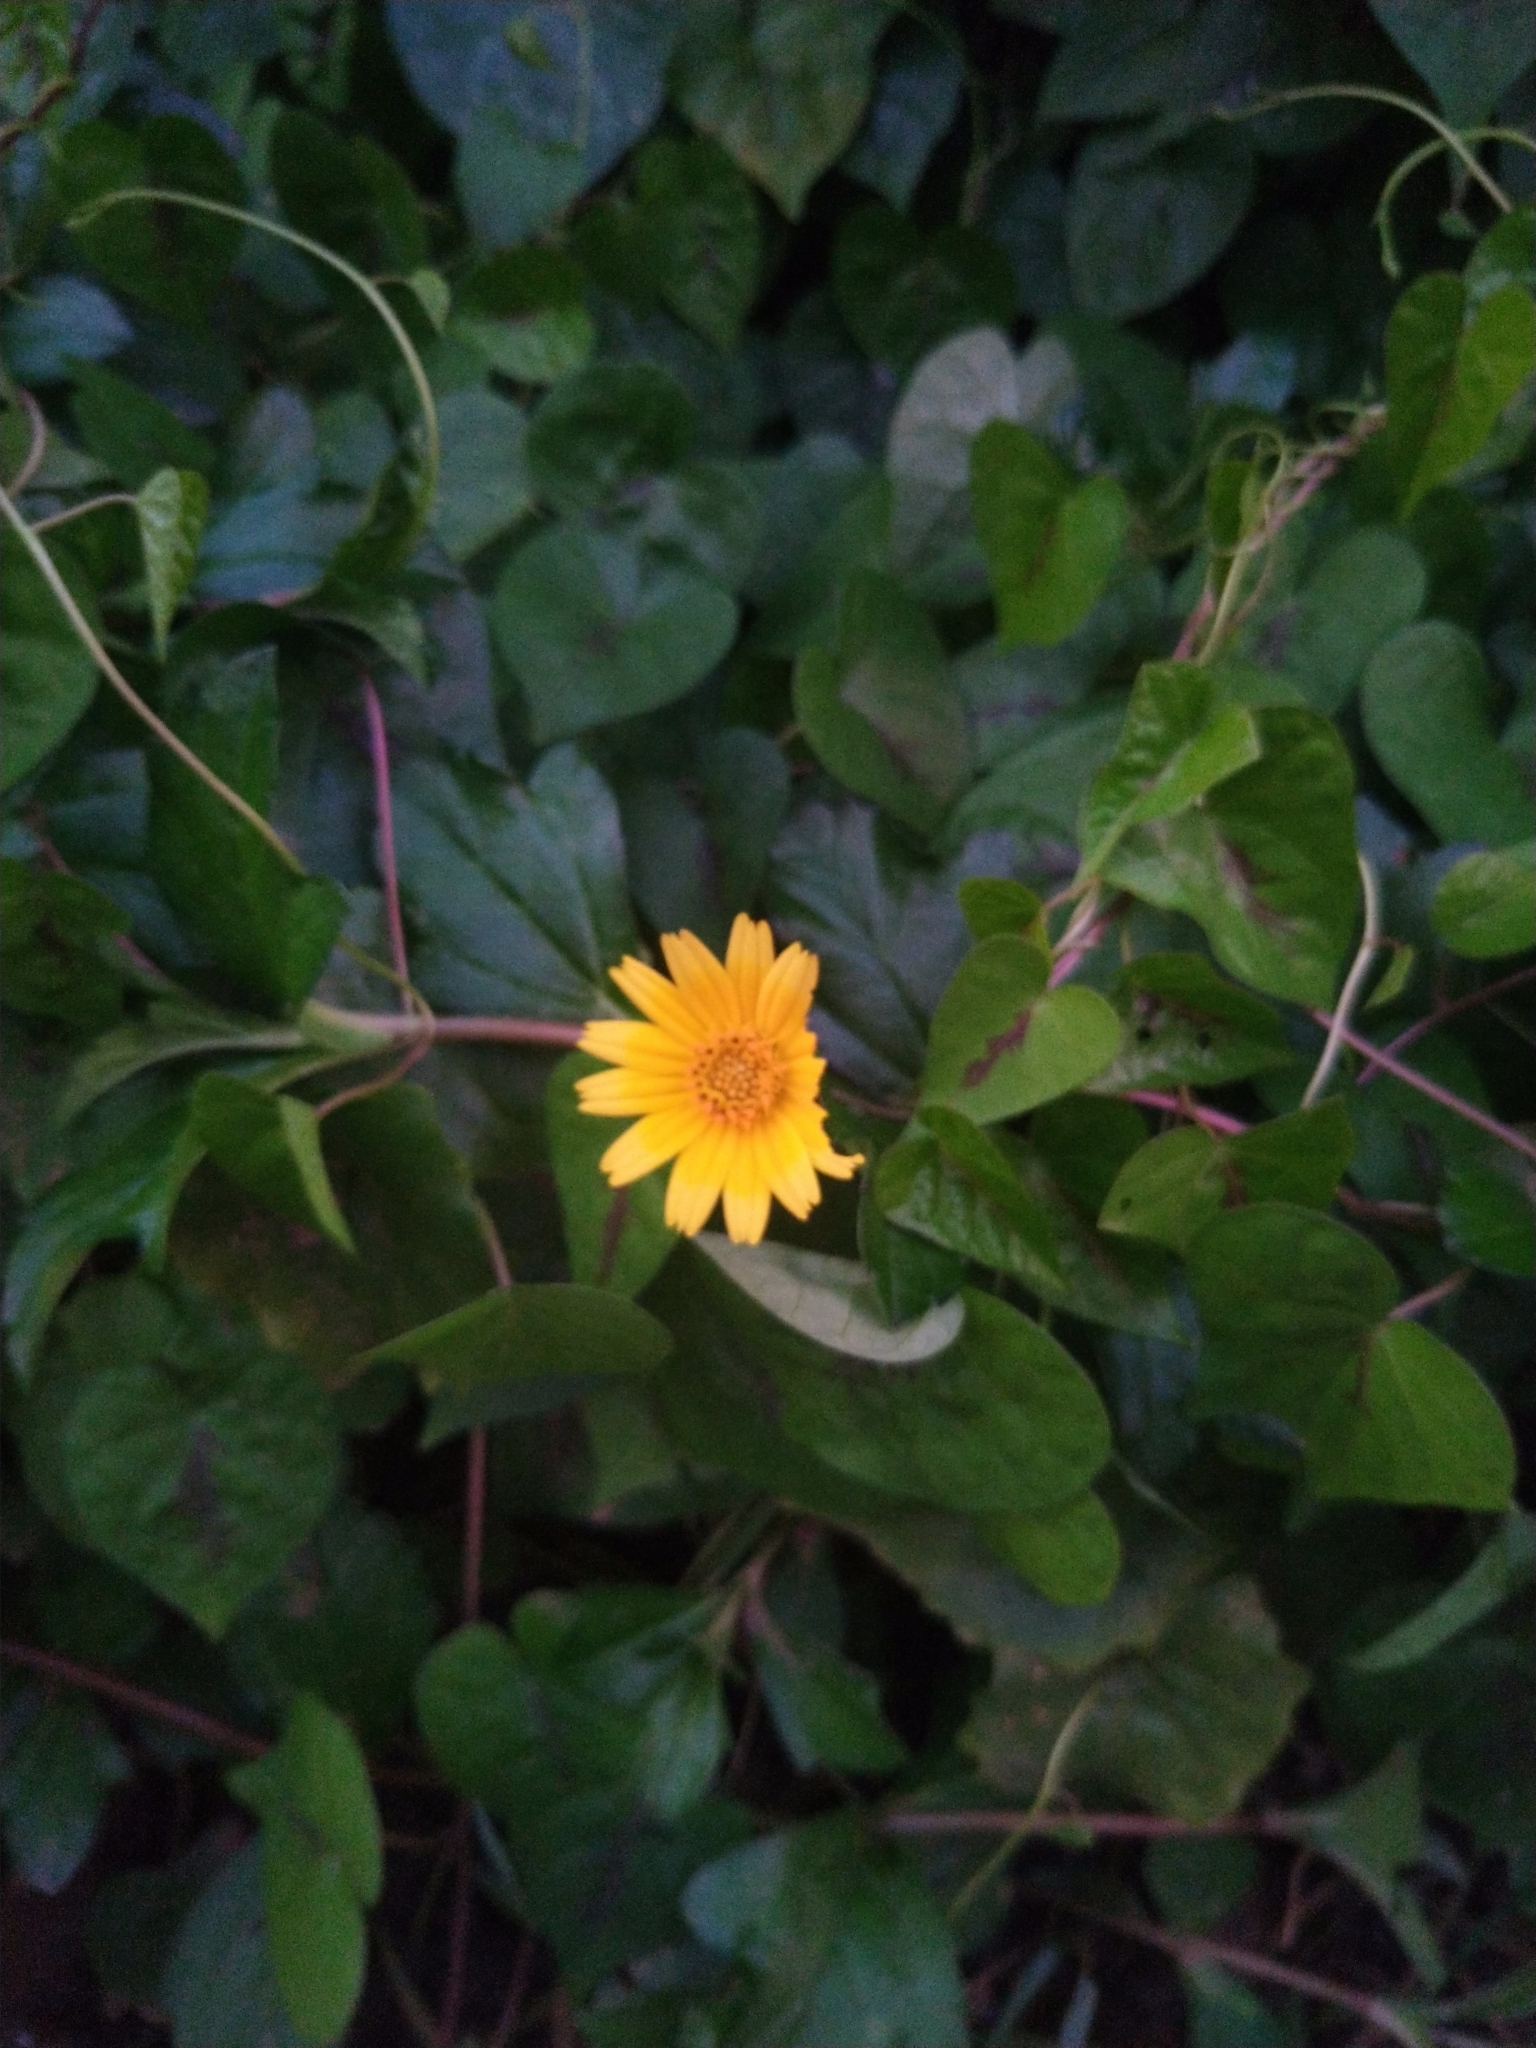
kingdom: Plantae
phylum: Tracheophyta
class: Magnoliopsida
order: Asterales
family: Asteraceae
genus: Sphagneticola
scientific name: Sphagneticola trilobata
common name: Bay biscayne creeping-oxeye
